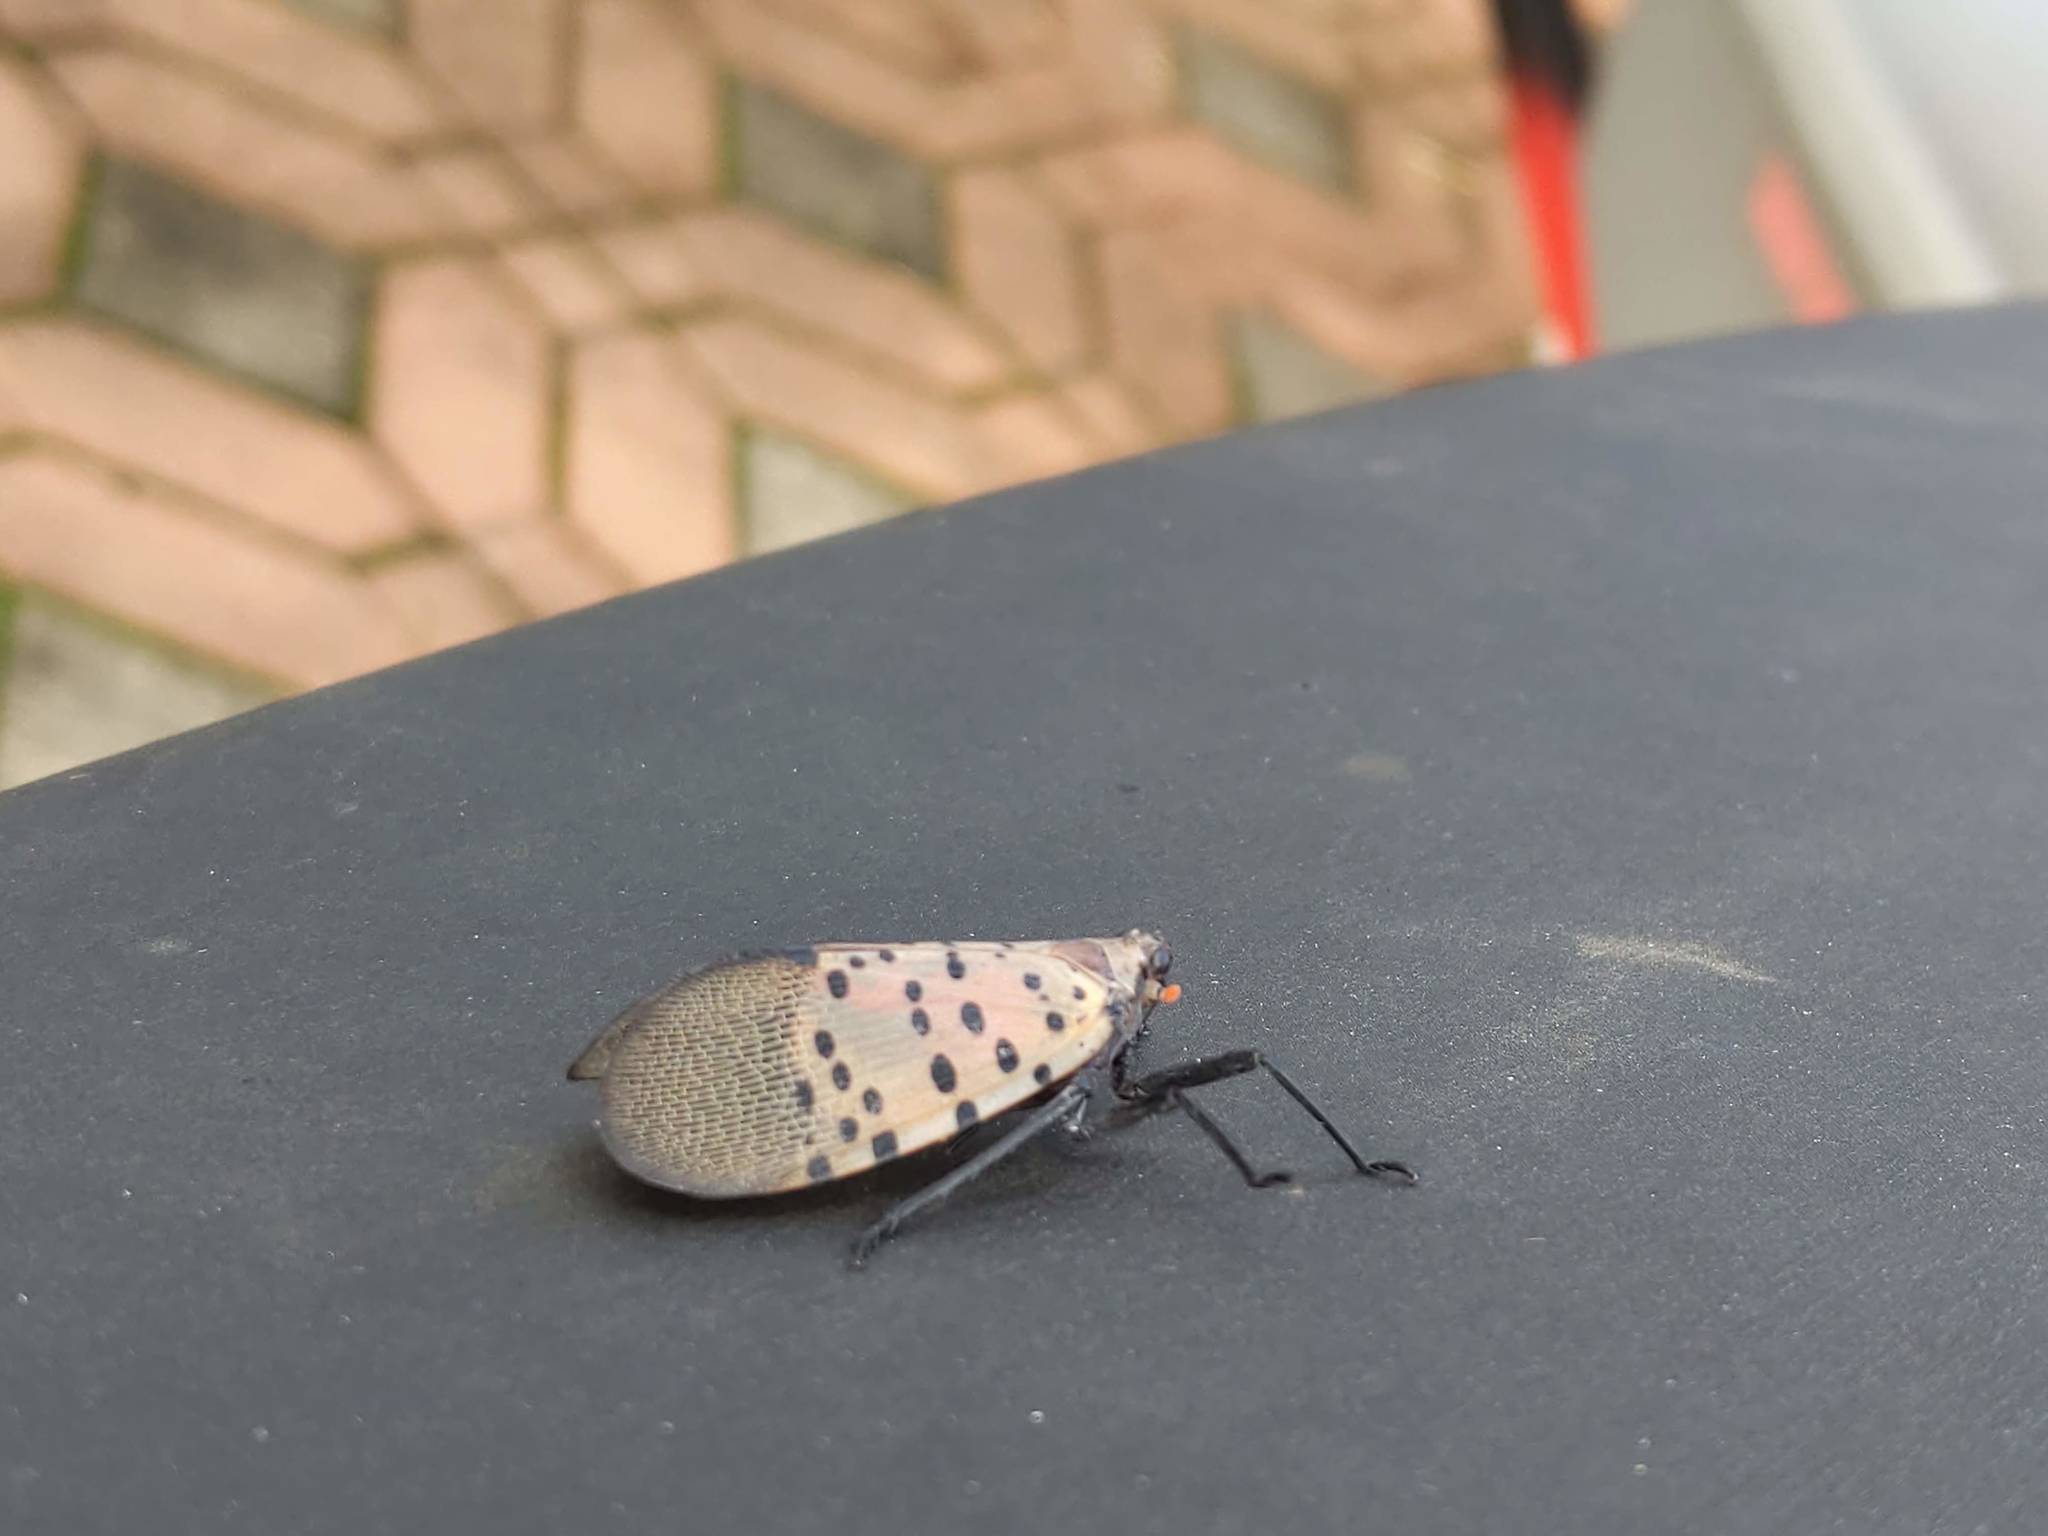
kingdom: Animalia
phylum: Arthropoda
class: Insecta
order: Hemiptera
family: Fulgoridae
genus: Lycorma
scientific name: Lycorma delicatula
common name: Spotted lanternfly
